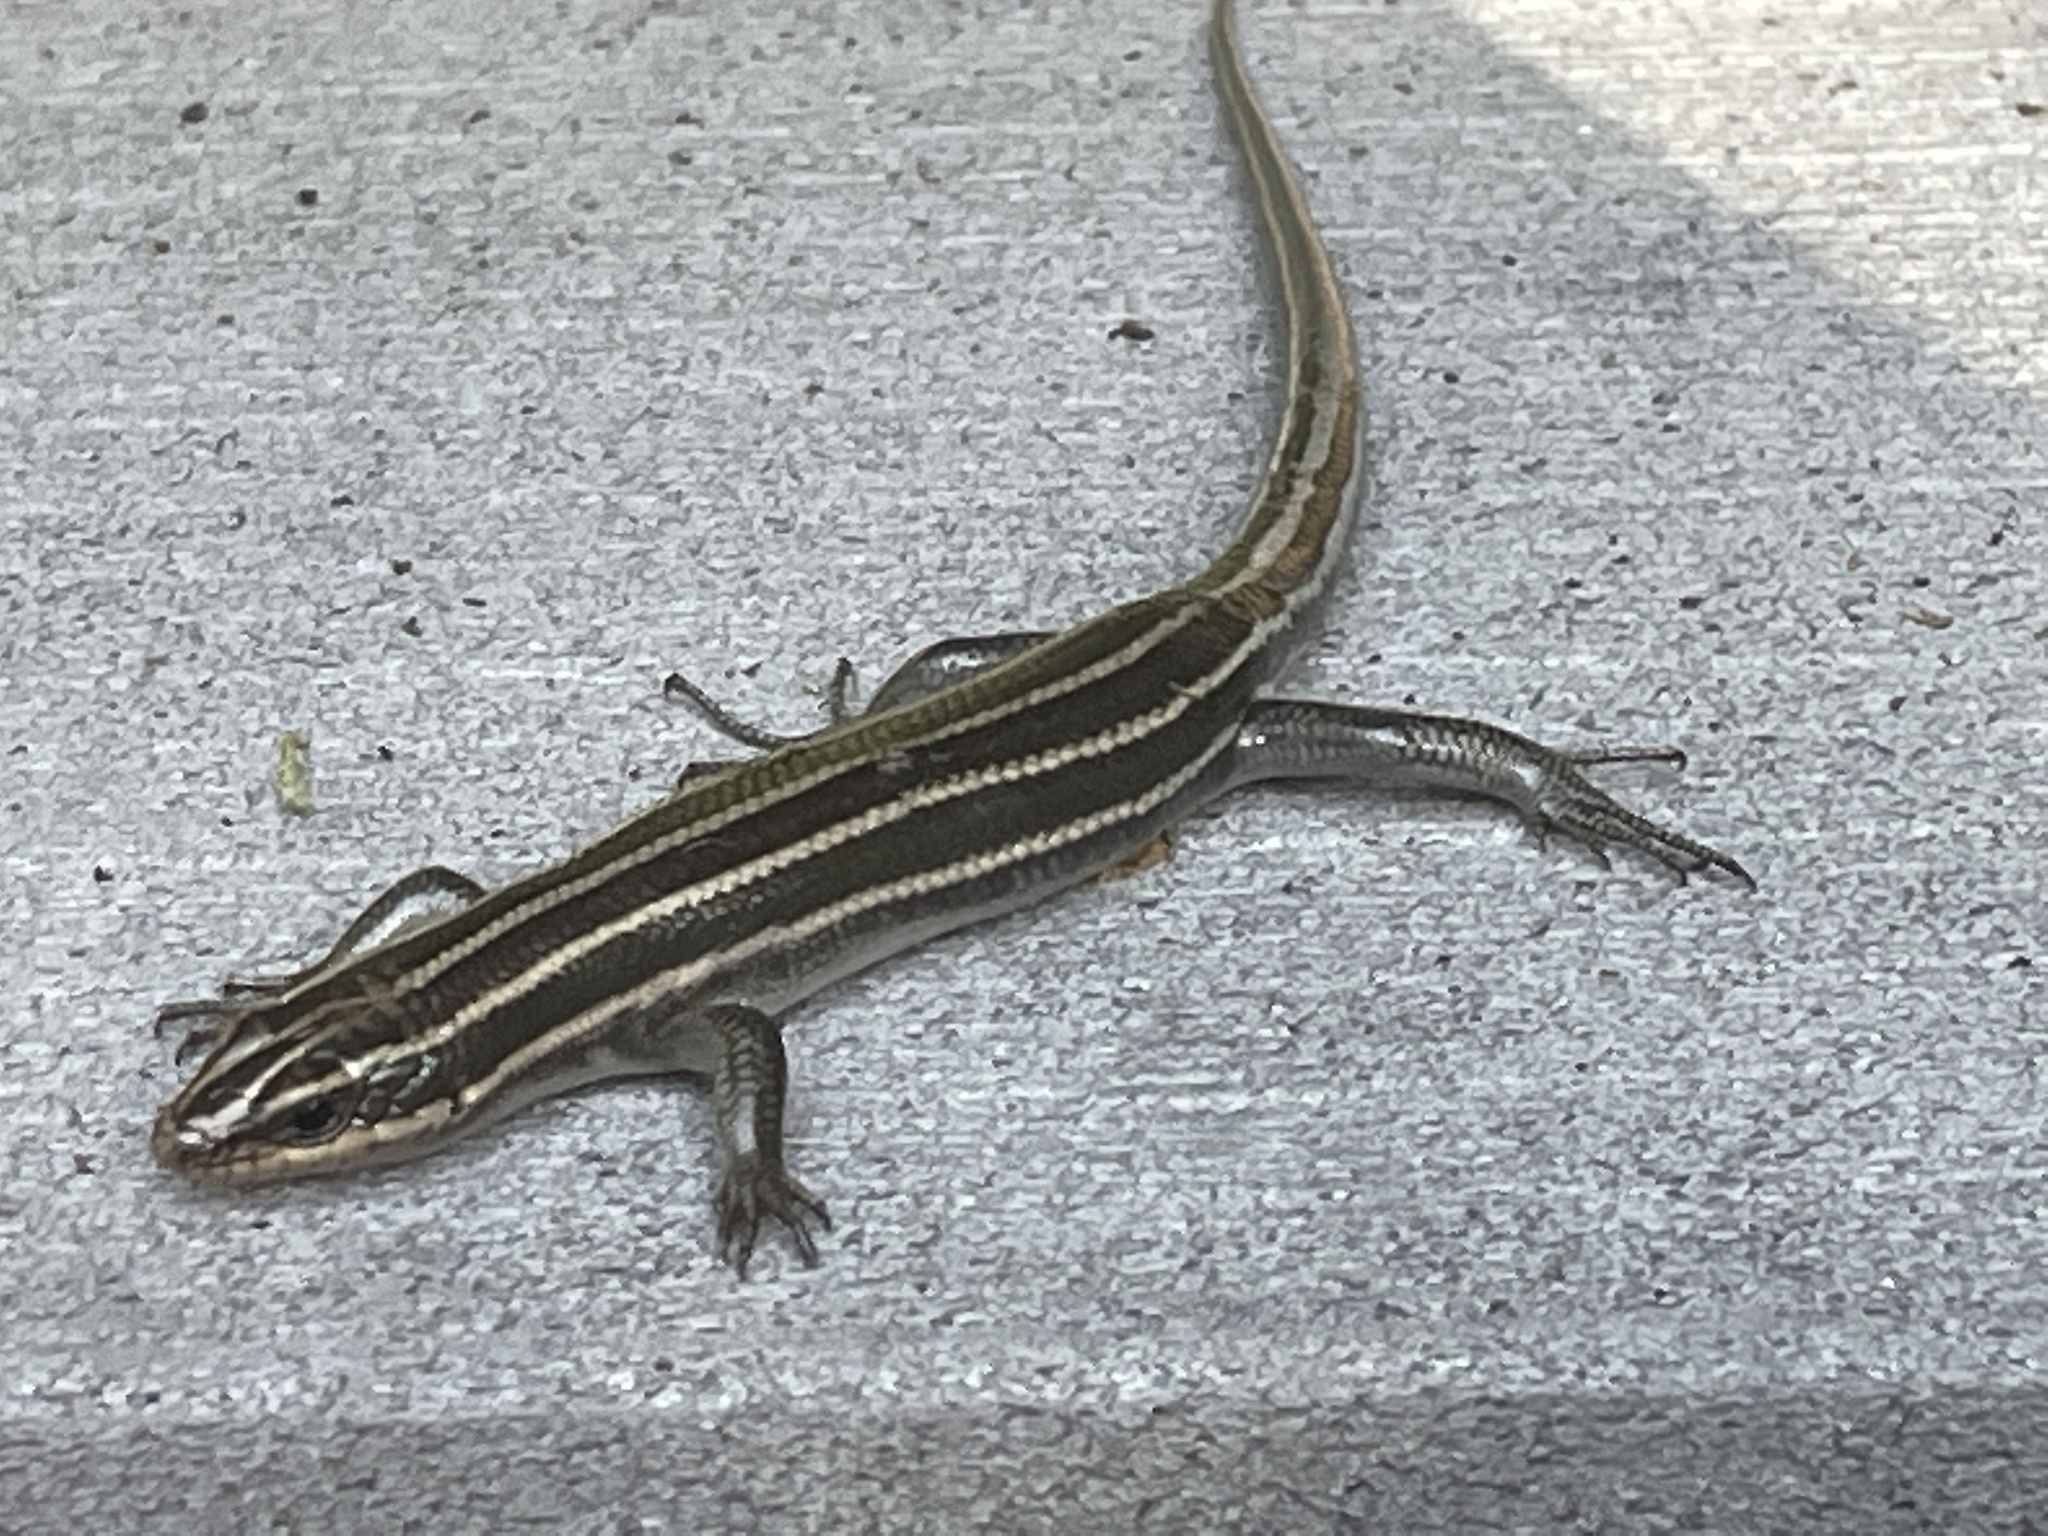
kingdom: Animalia
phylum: Chordata
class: Squamata
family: Scincidae
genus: Plestiodon
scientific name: Plestiodon fasciatus
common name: Five-lined skink
